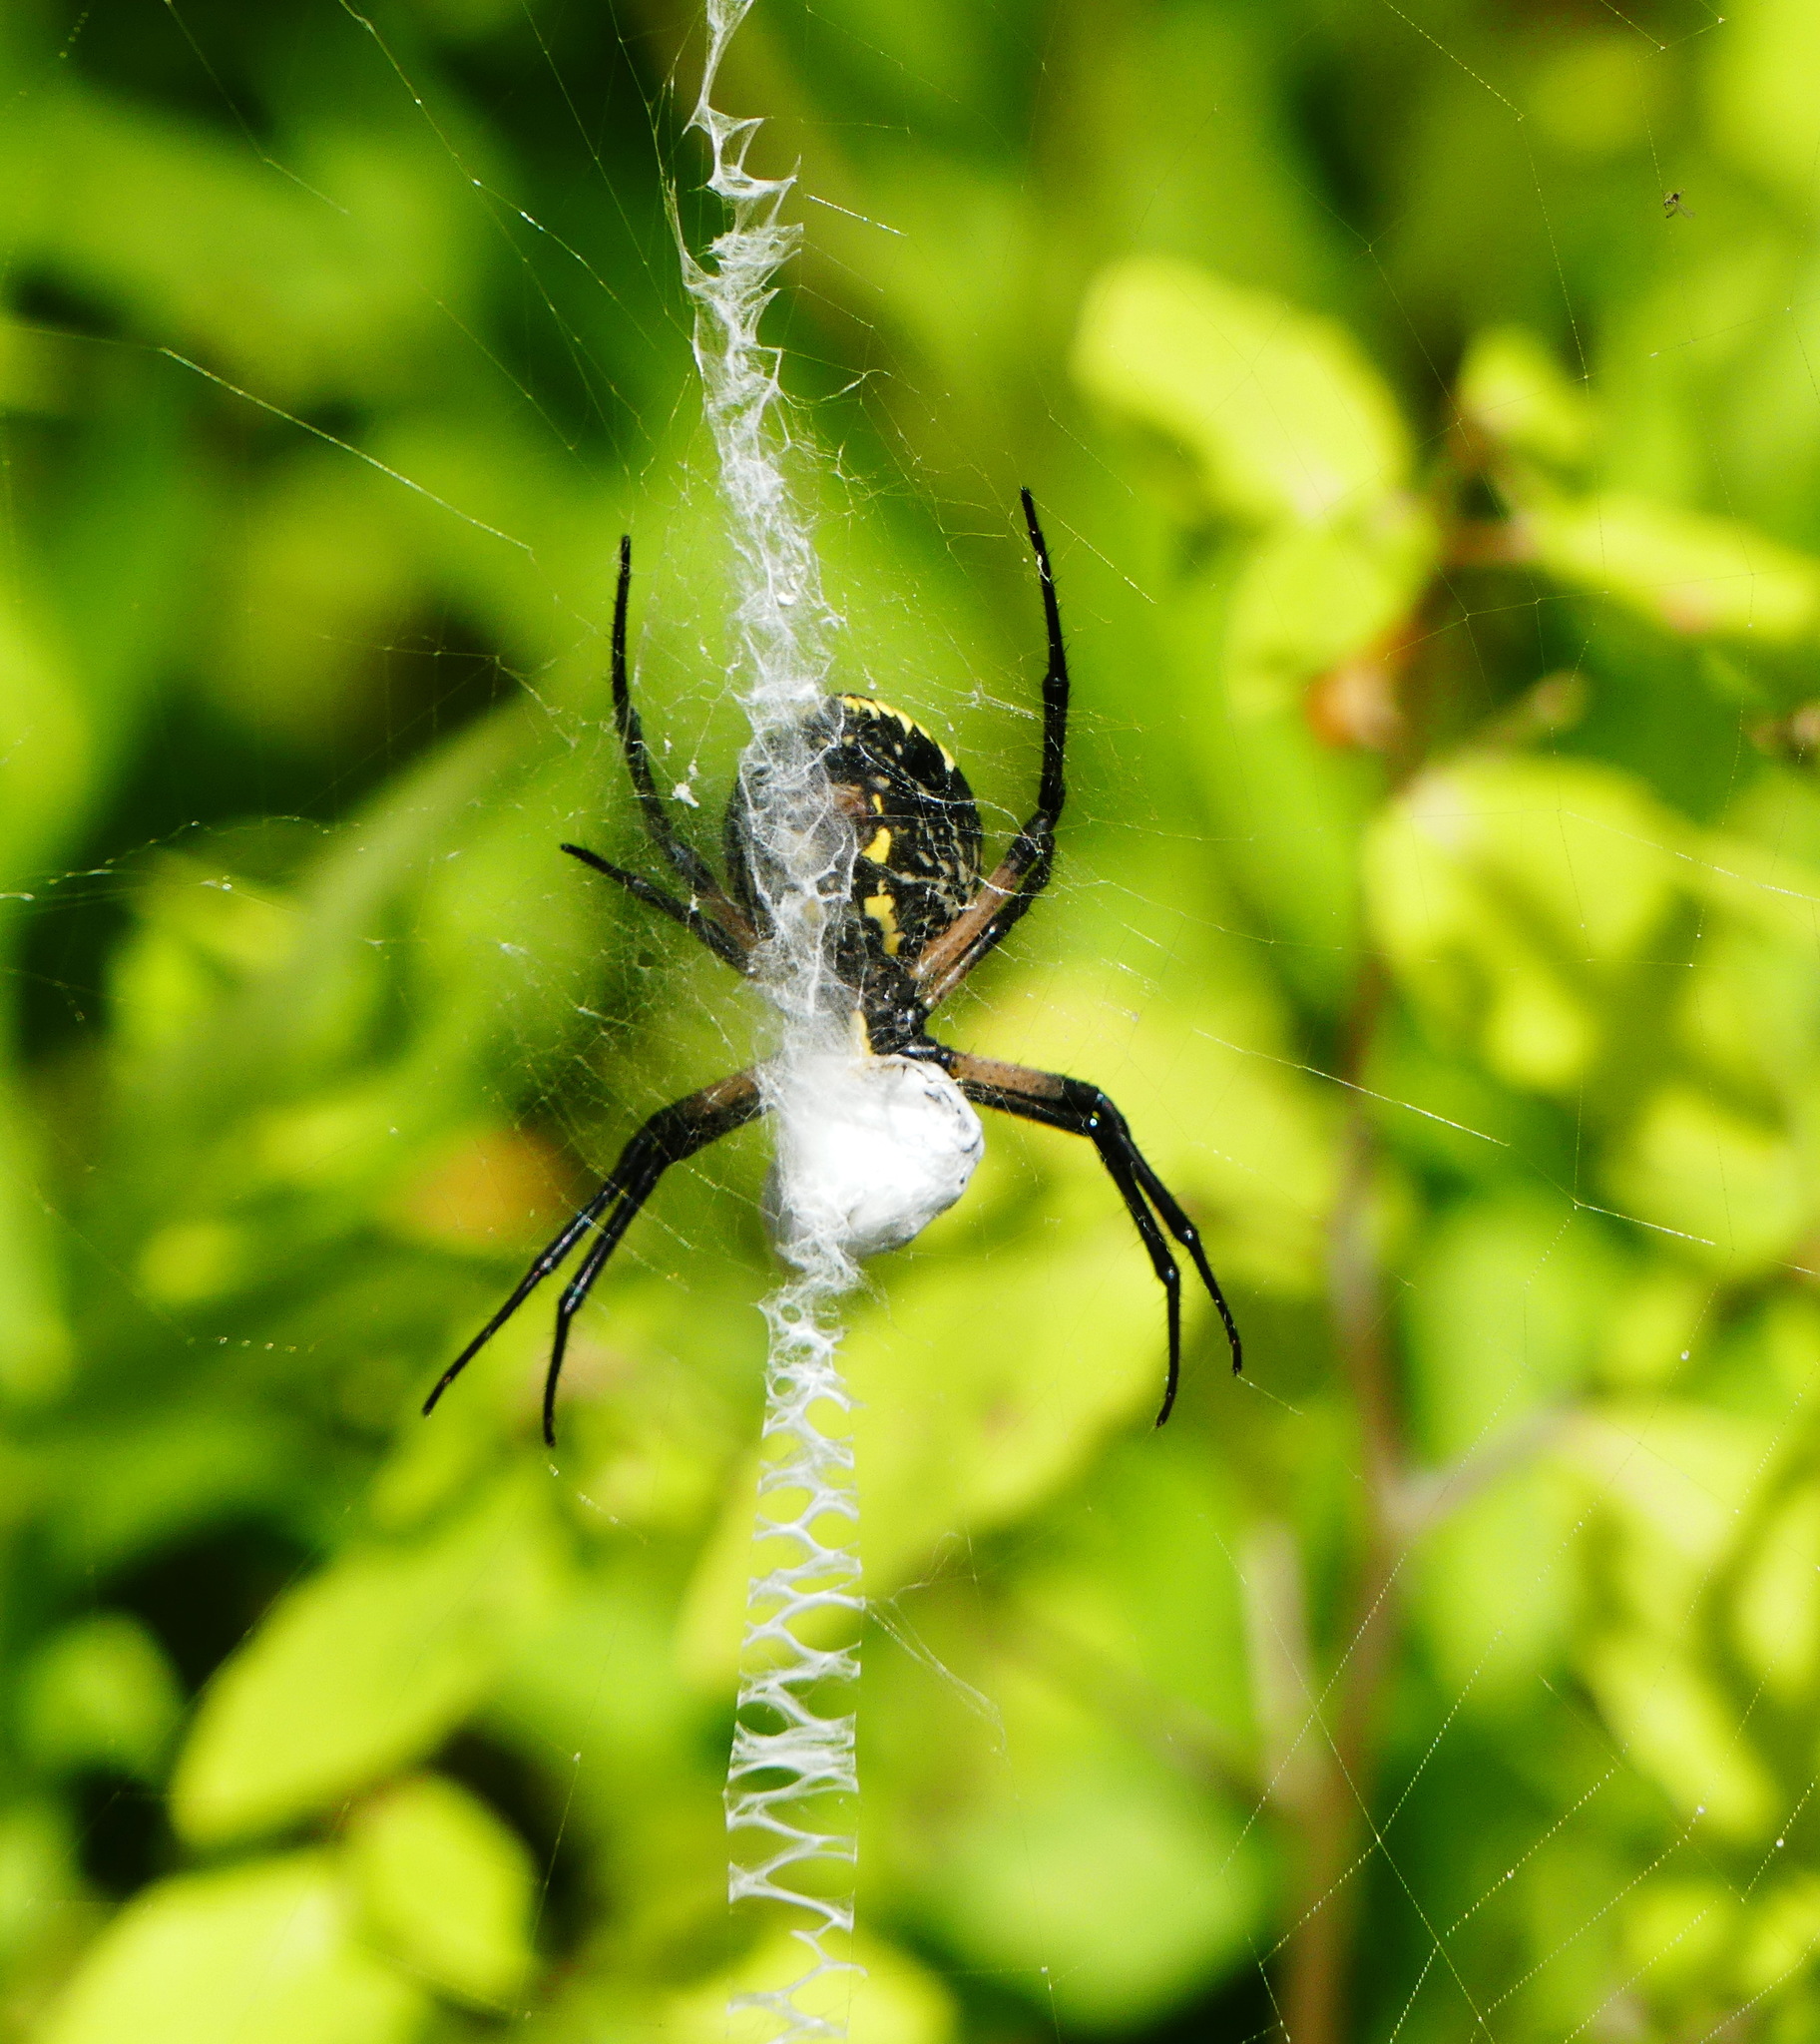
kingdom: Animalia
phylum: Arthropoda
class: Arachnida
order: Araneae
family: Araneidae
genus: Argiope
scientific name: Argiope aurantia
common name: Orb weavers
